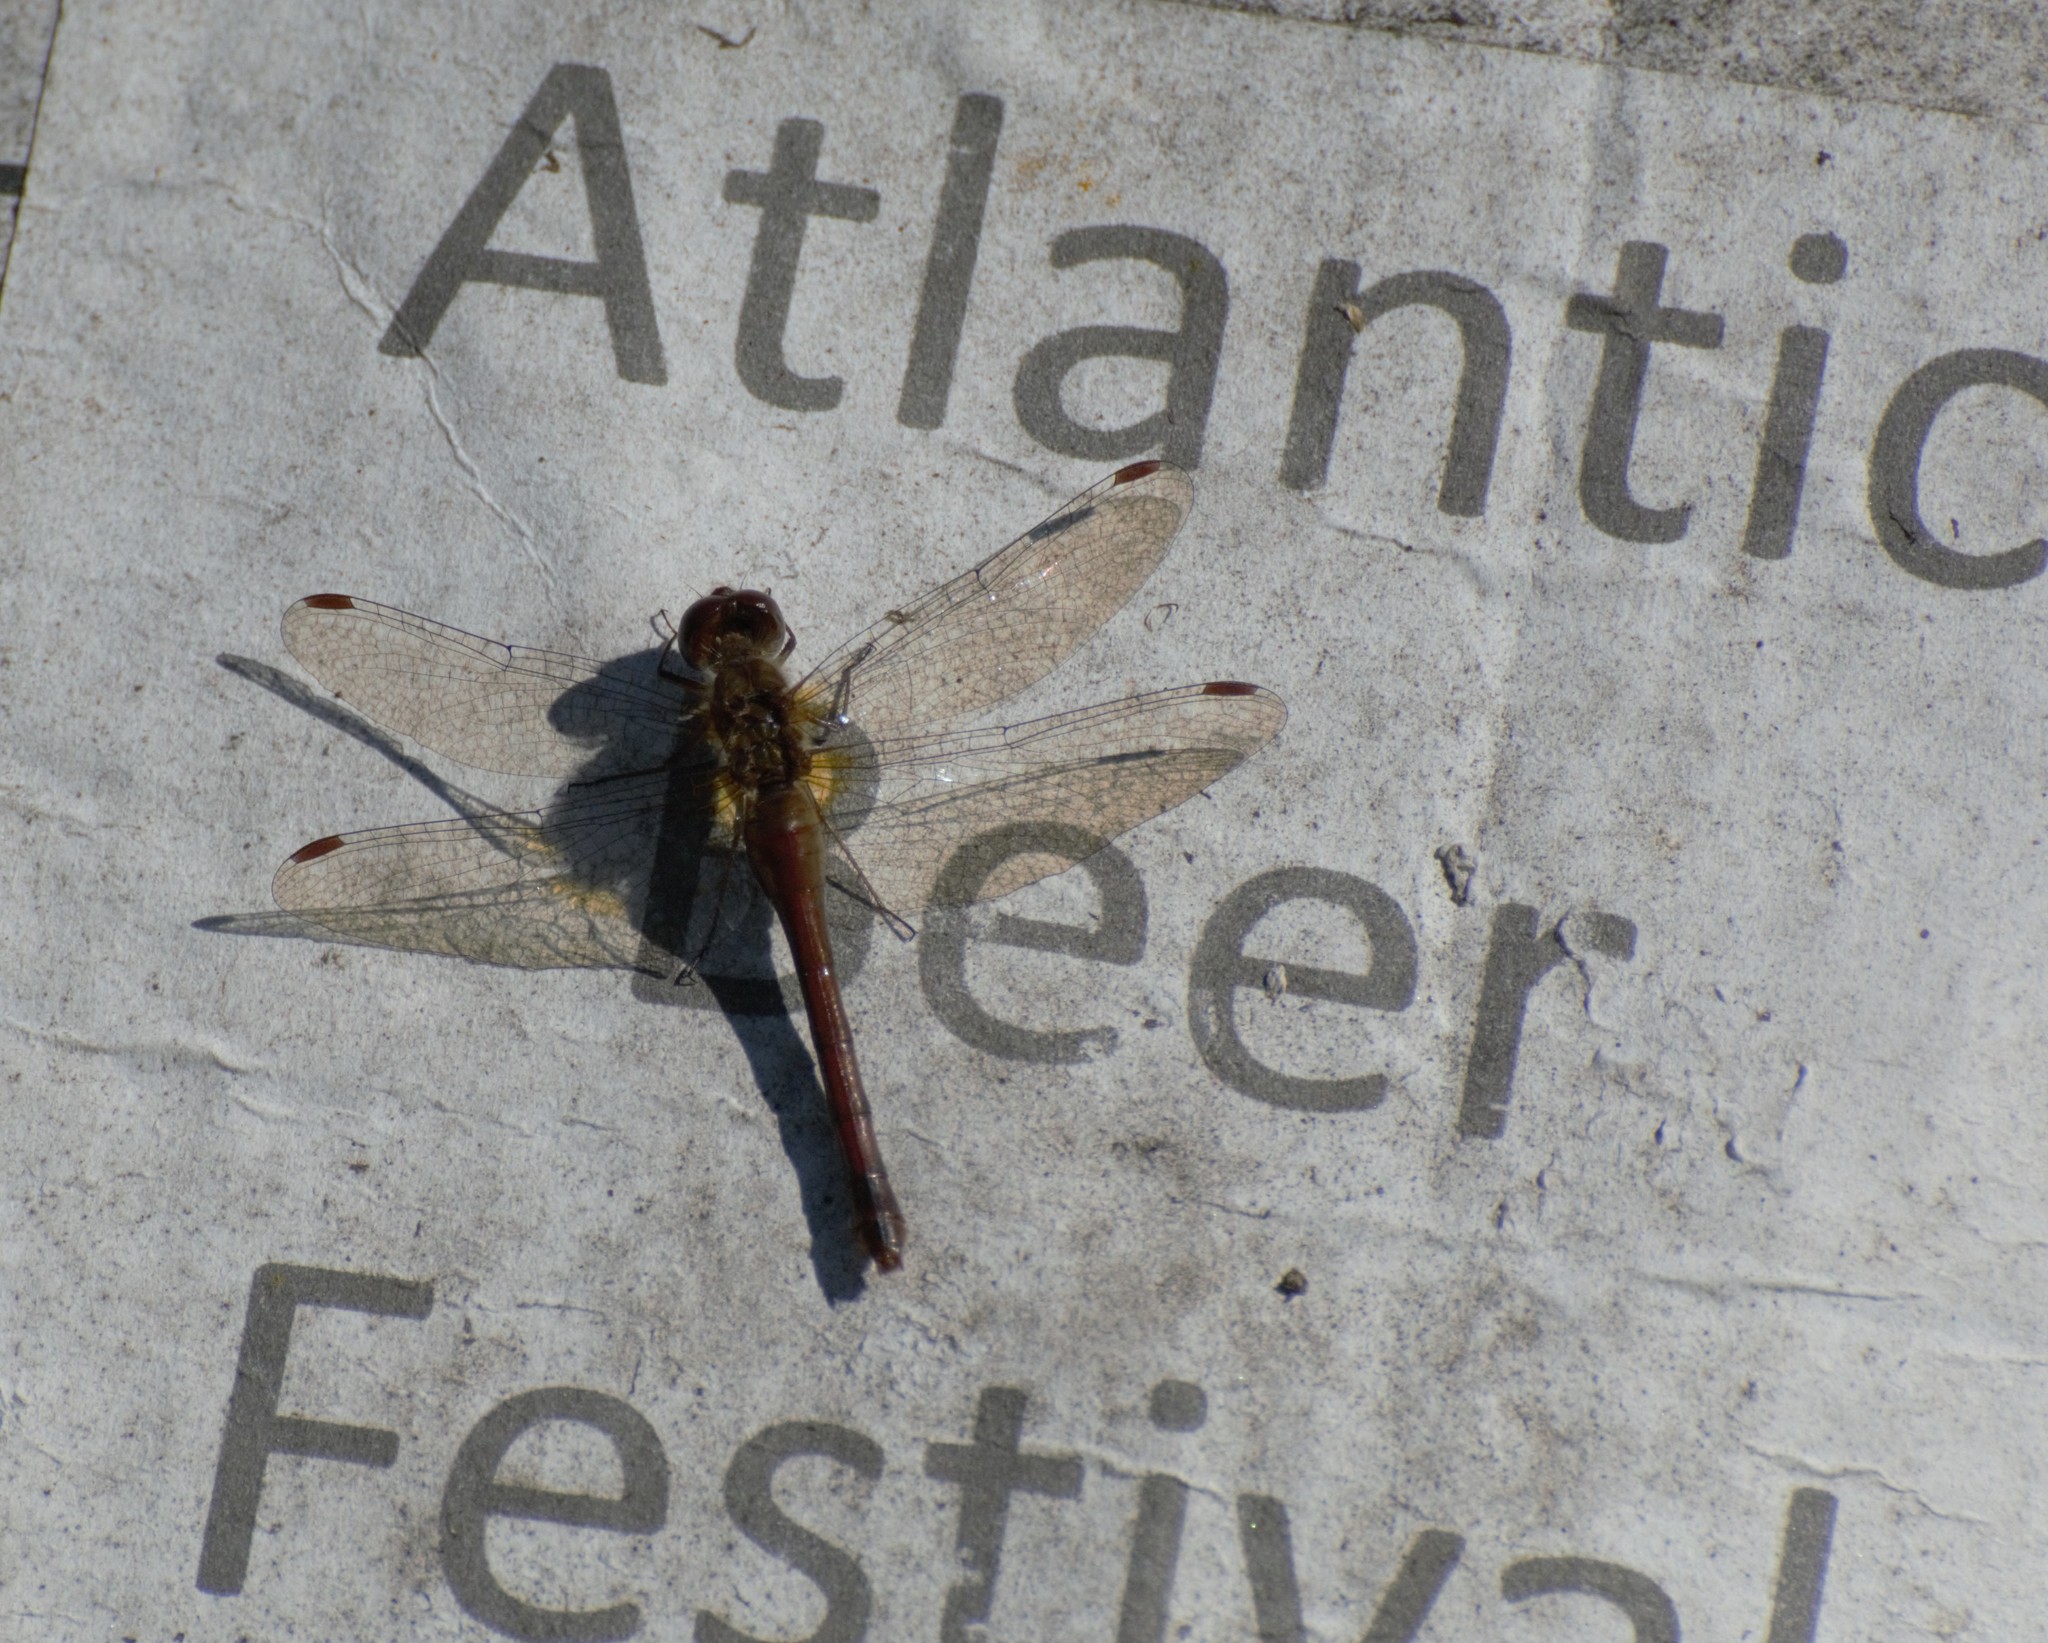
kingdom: Animalia
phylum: Arthropoda
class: Insecta
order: Odonata
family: Libellulidae
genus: Sympetrum
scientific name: Sympetrum vicinum
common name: Autumn meadowhawk
